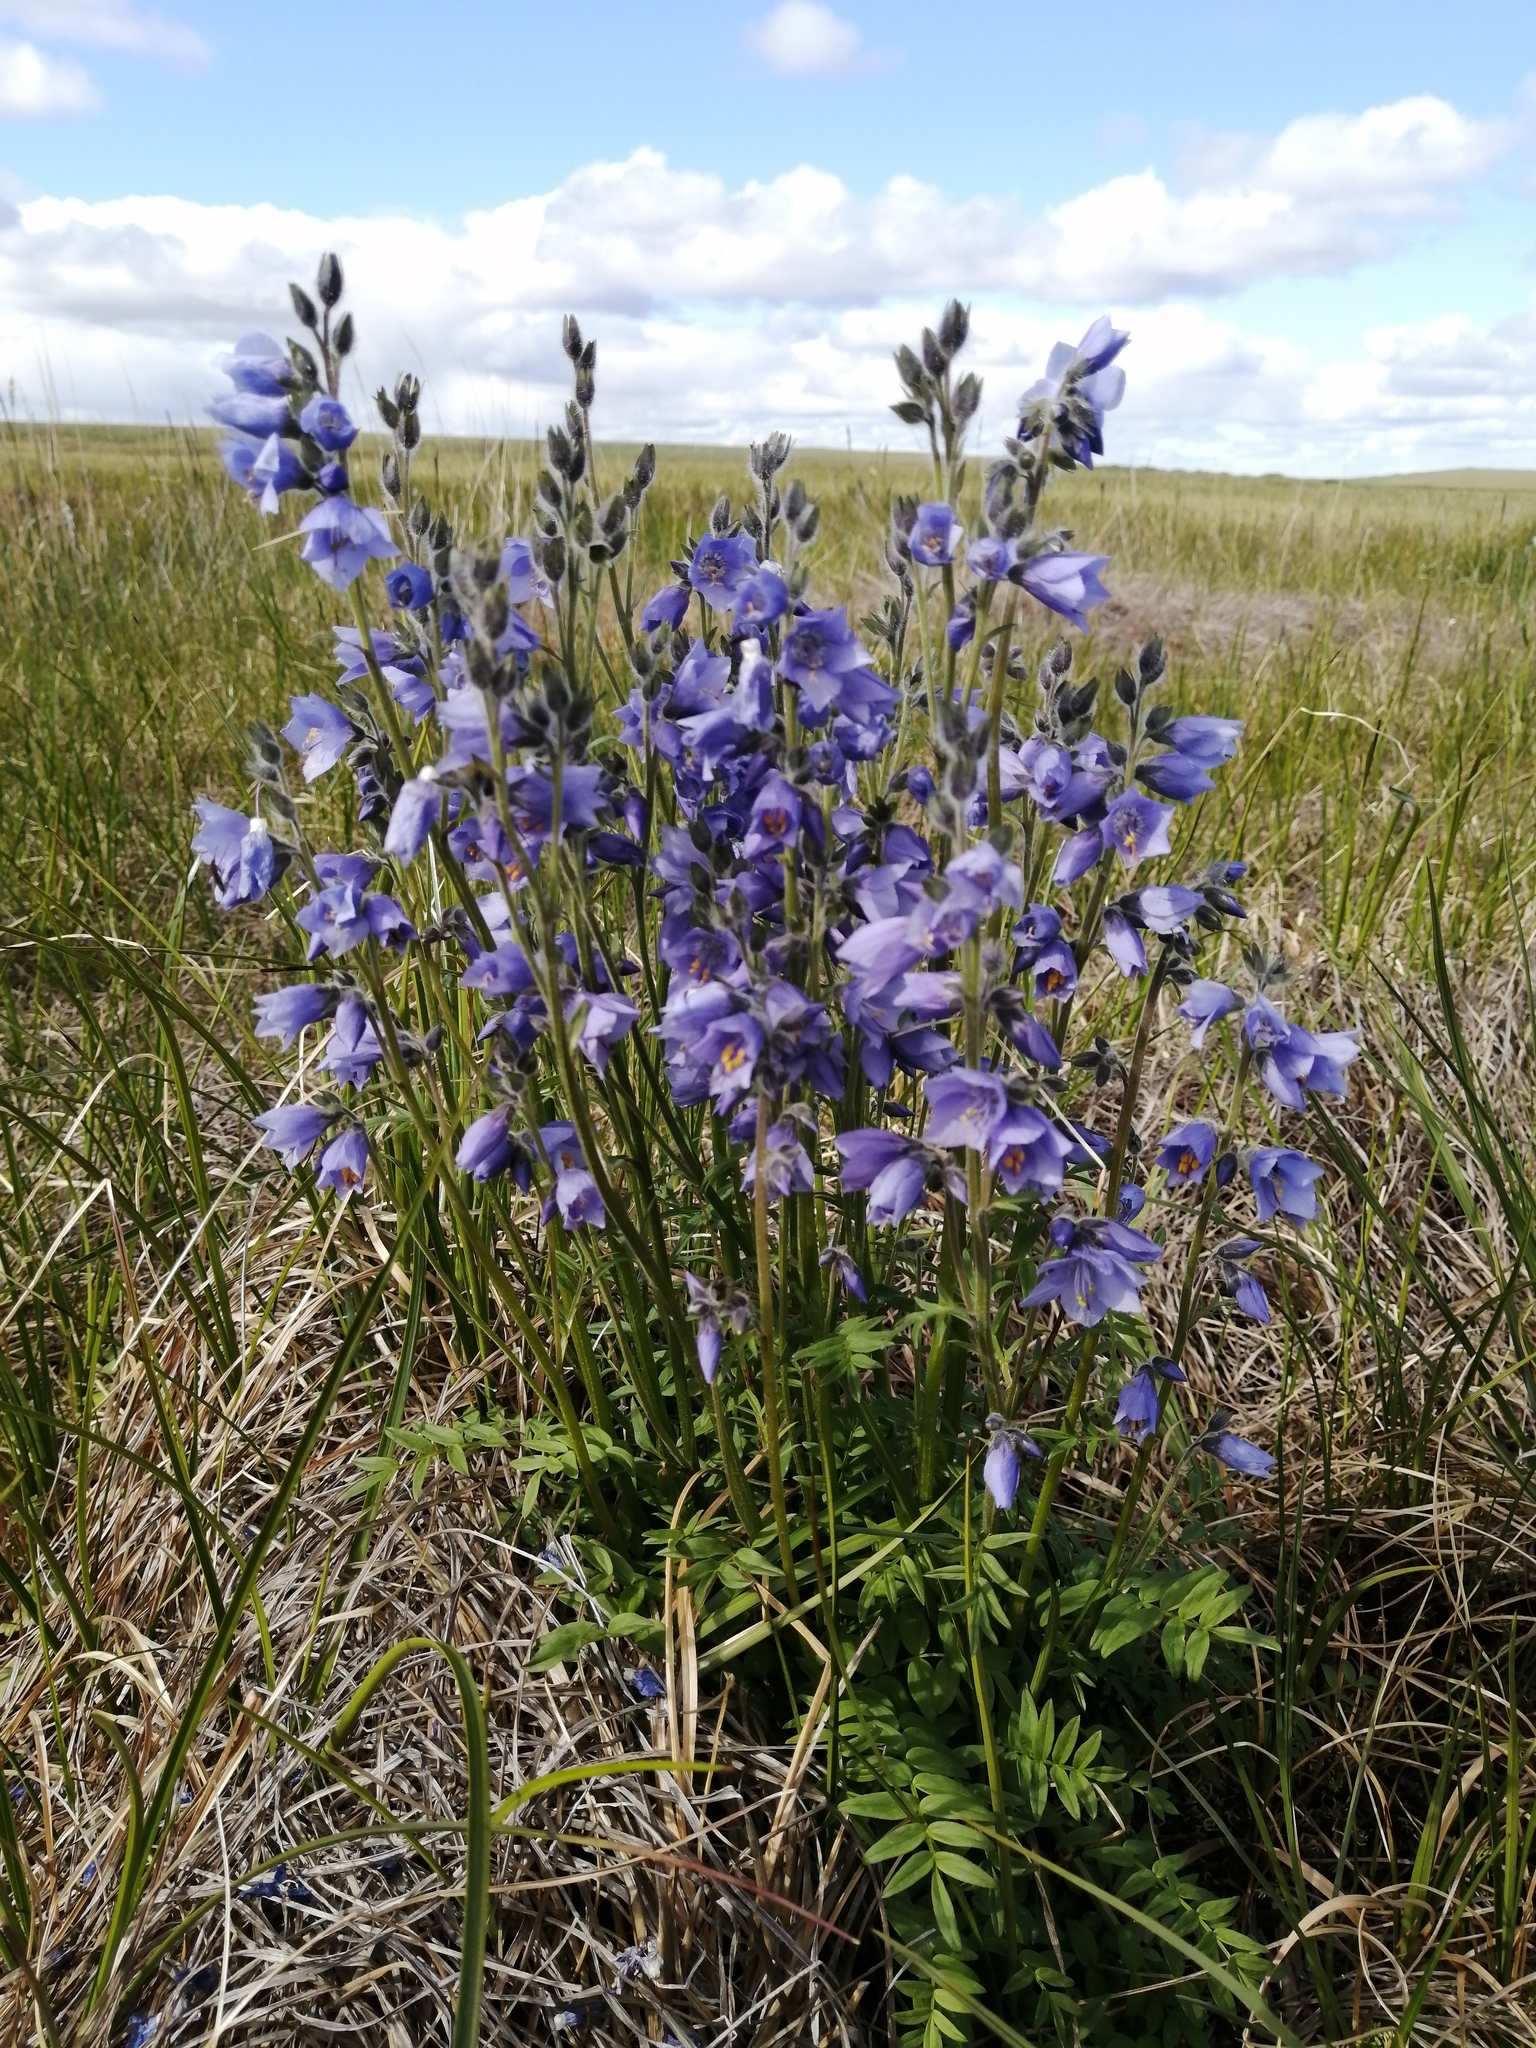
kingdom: Plantae
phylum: Tracheophyta
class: Magnoliopsida
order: Ericales
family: Polemoniaceae
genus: Polemonium
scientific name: Polemonium acutiflorum
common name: Tall jacob's-ladder
